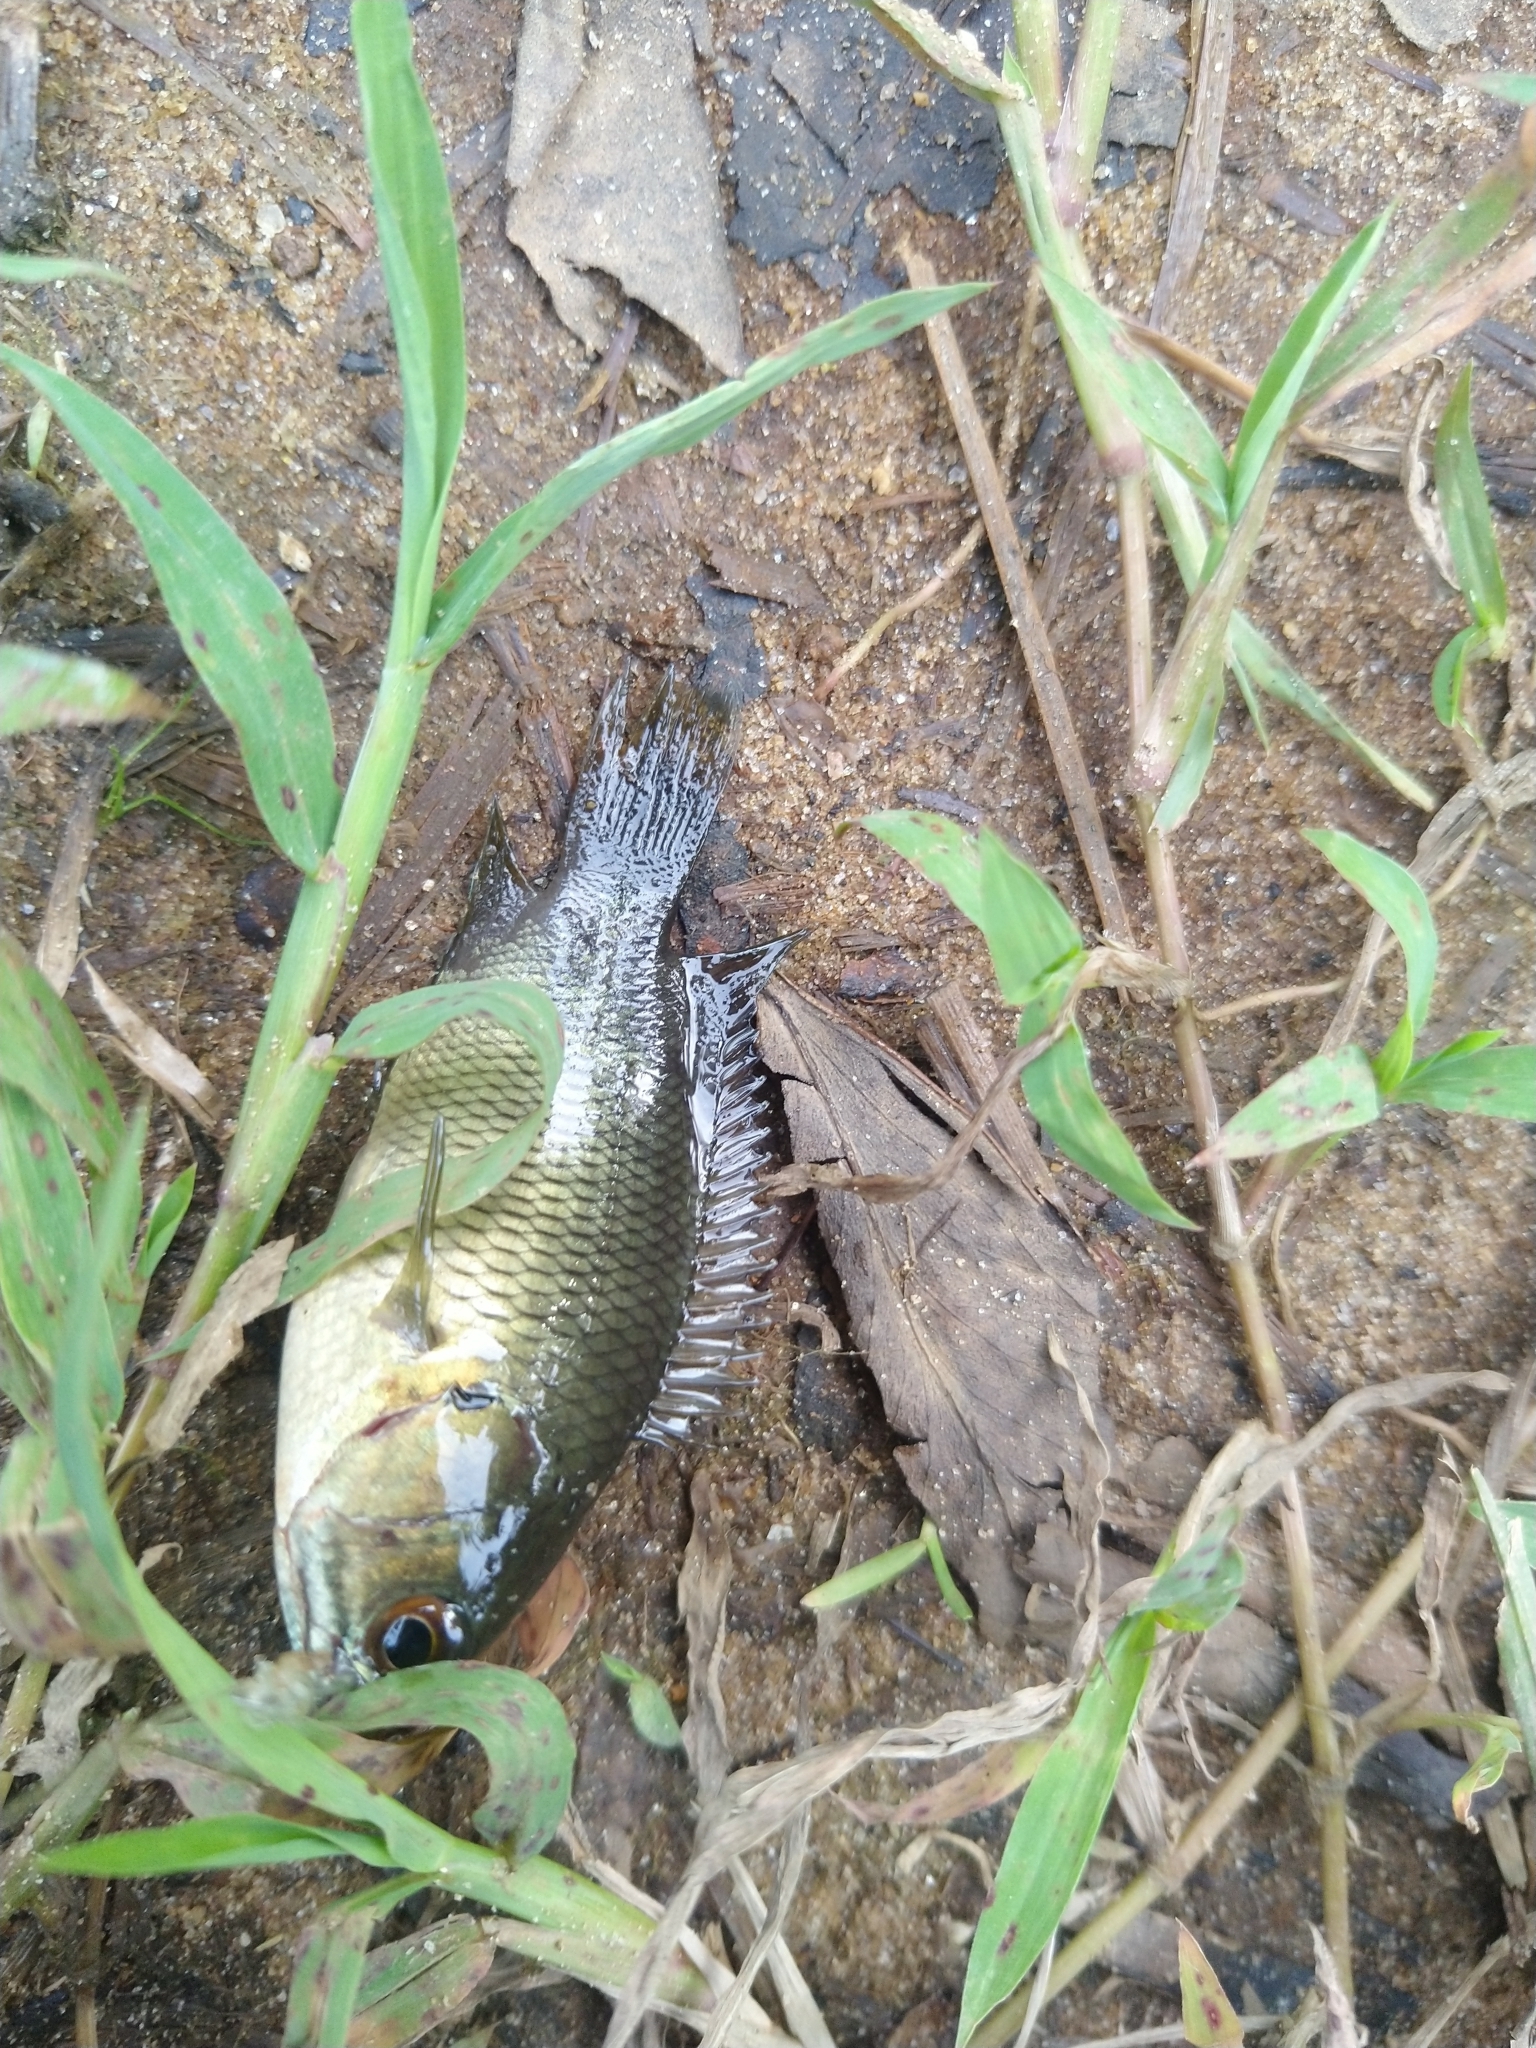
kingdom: Animalia
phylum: Chordata
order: Perciformes
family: Anabantidae
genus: Anabas
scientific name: Anabas testudineus
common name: Climbing perch
